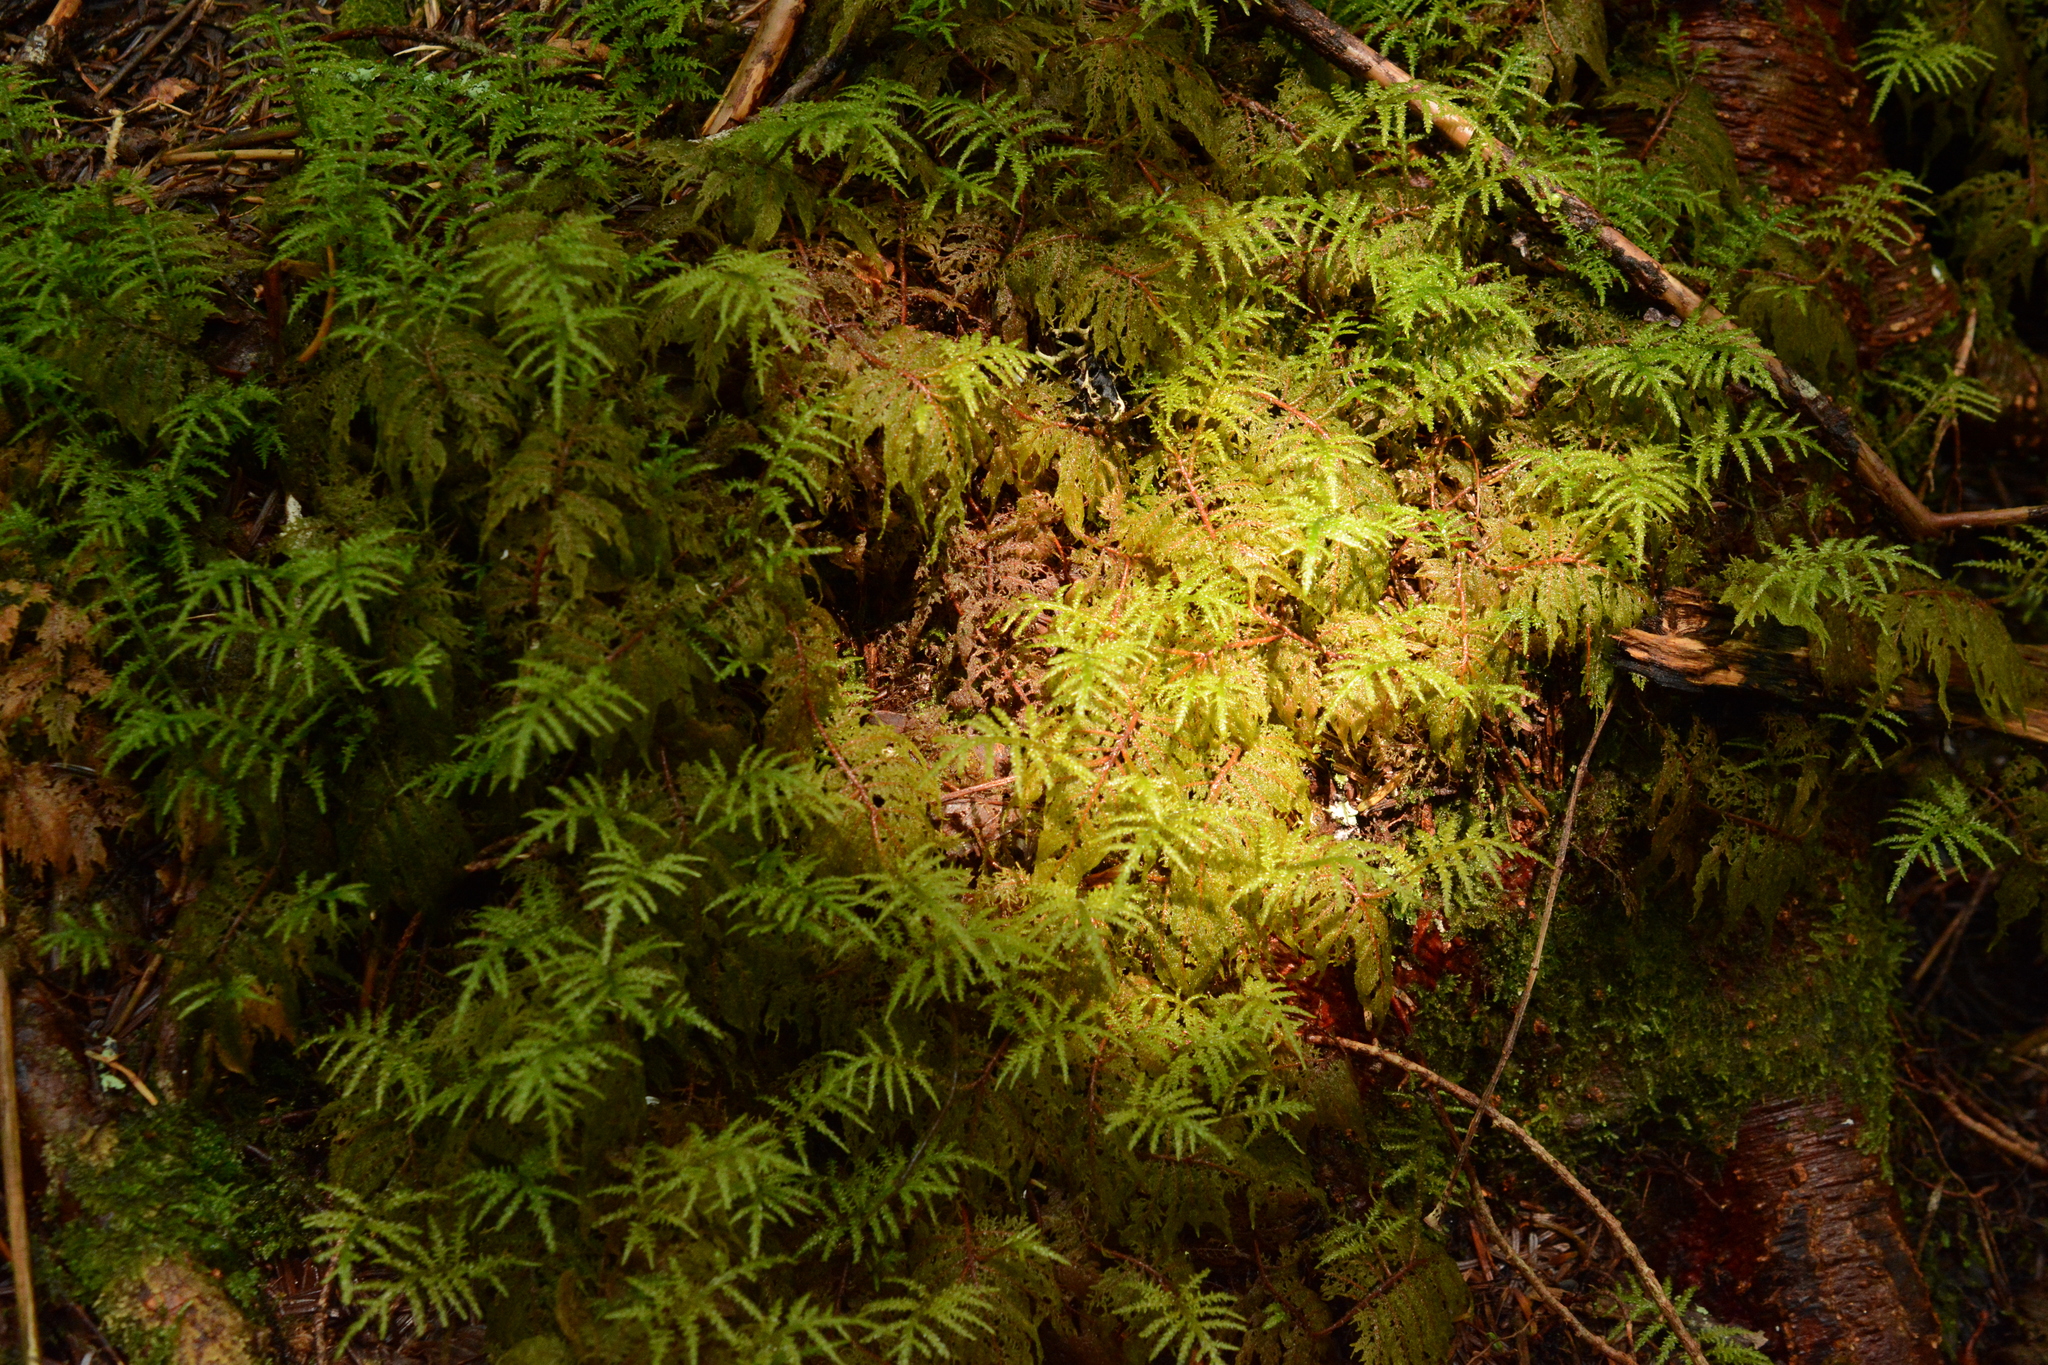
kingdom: Plantae
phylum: Bryophyta
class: Bryopsida
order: Hypnales
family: Hylocomiaceae
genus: Hylocomium
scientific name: Hylocomium splendens
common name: Stairstep moss
